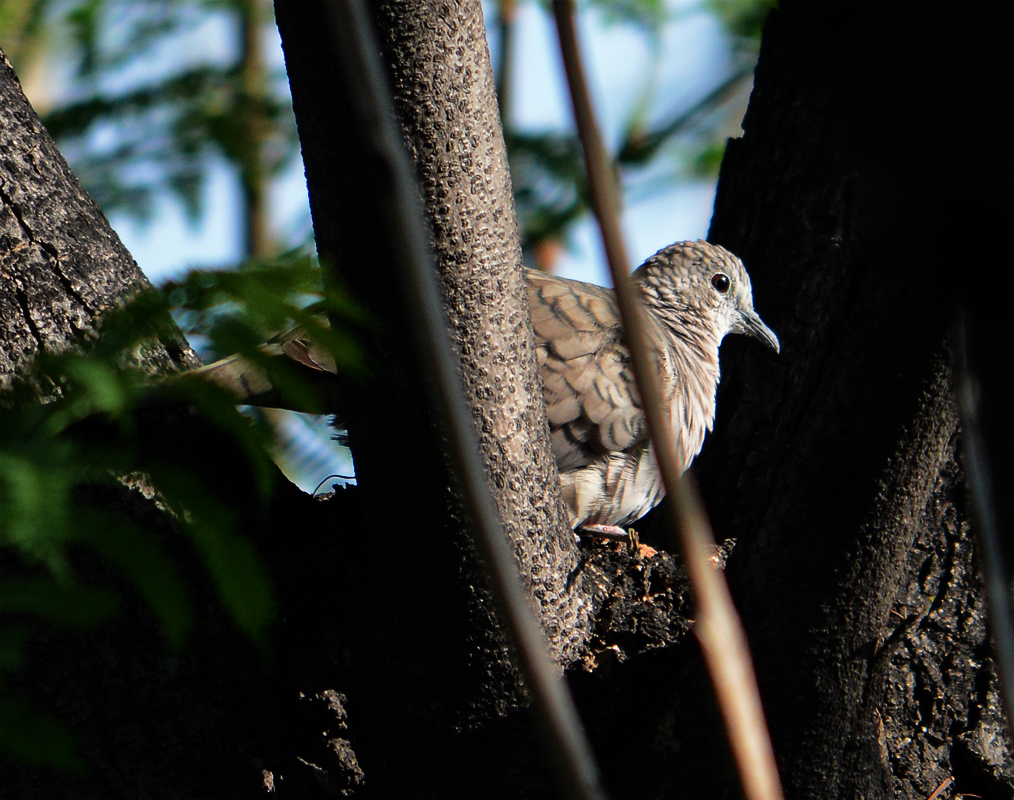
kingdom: Animalia
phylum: Chordata
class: Aves
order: Columbiformes
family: Columbidae
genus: Columbina
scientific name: Columbina inca
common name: Inca dove
